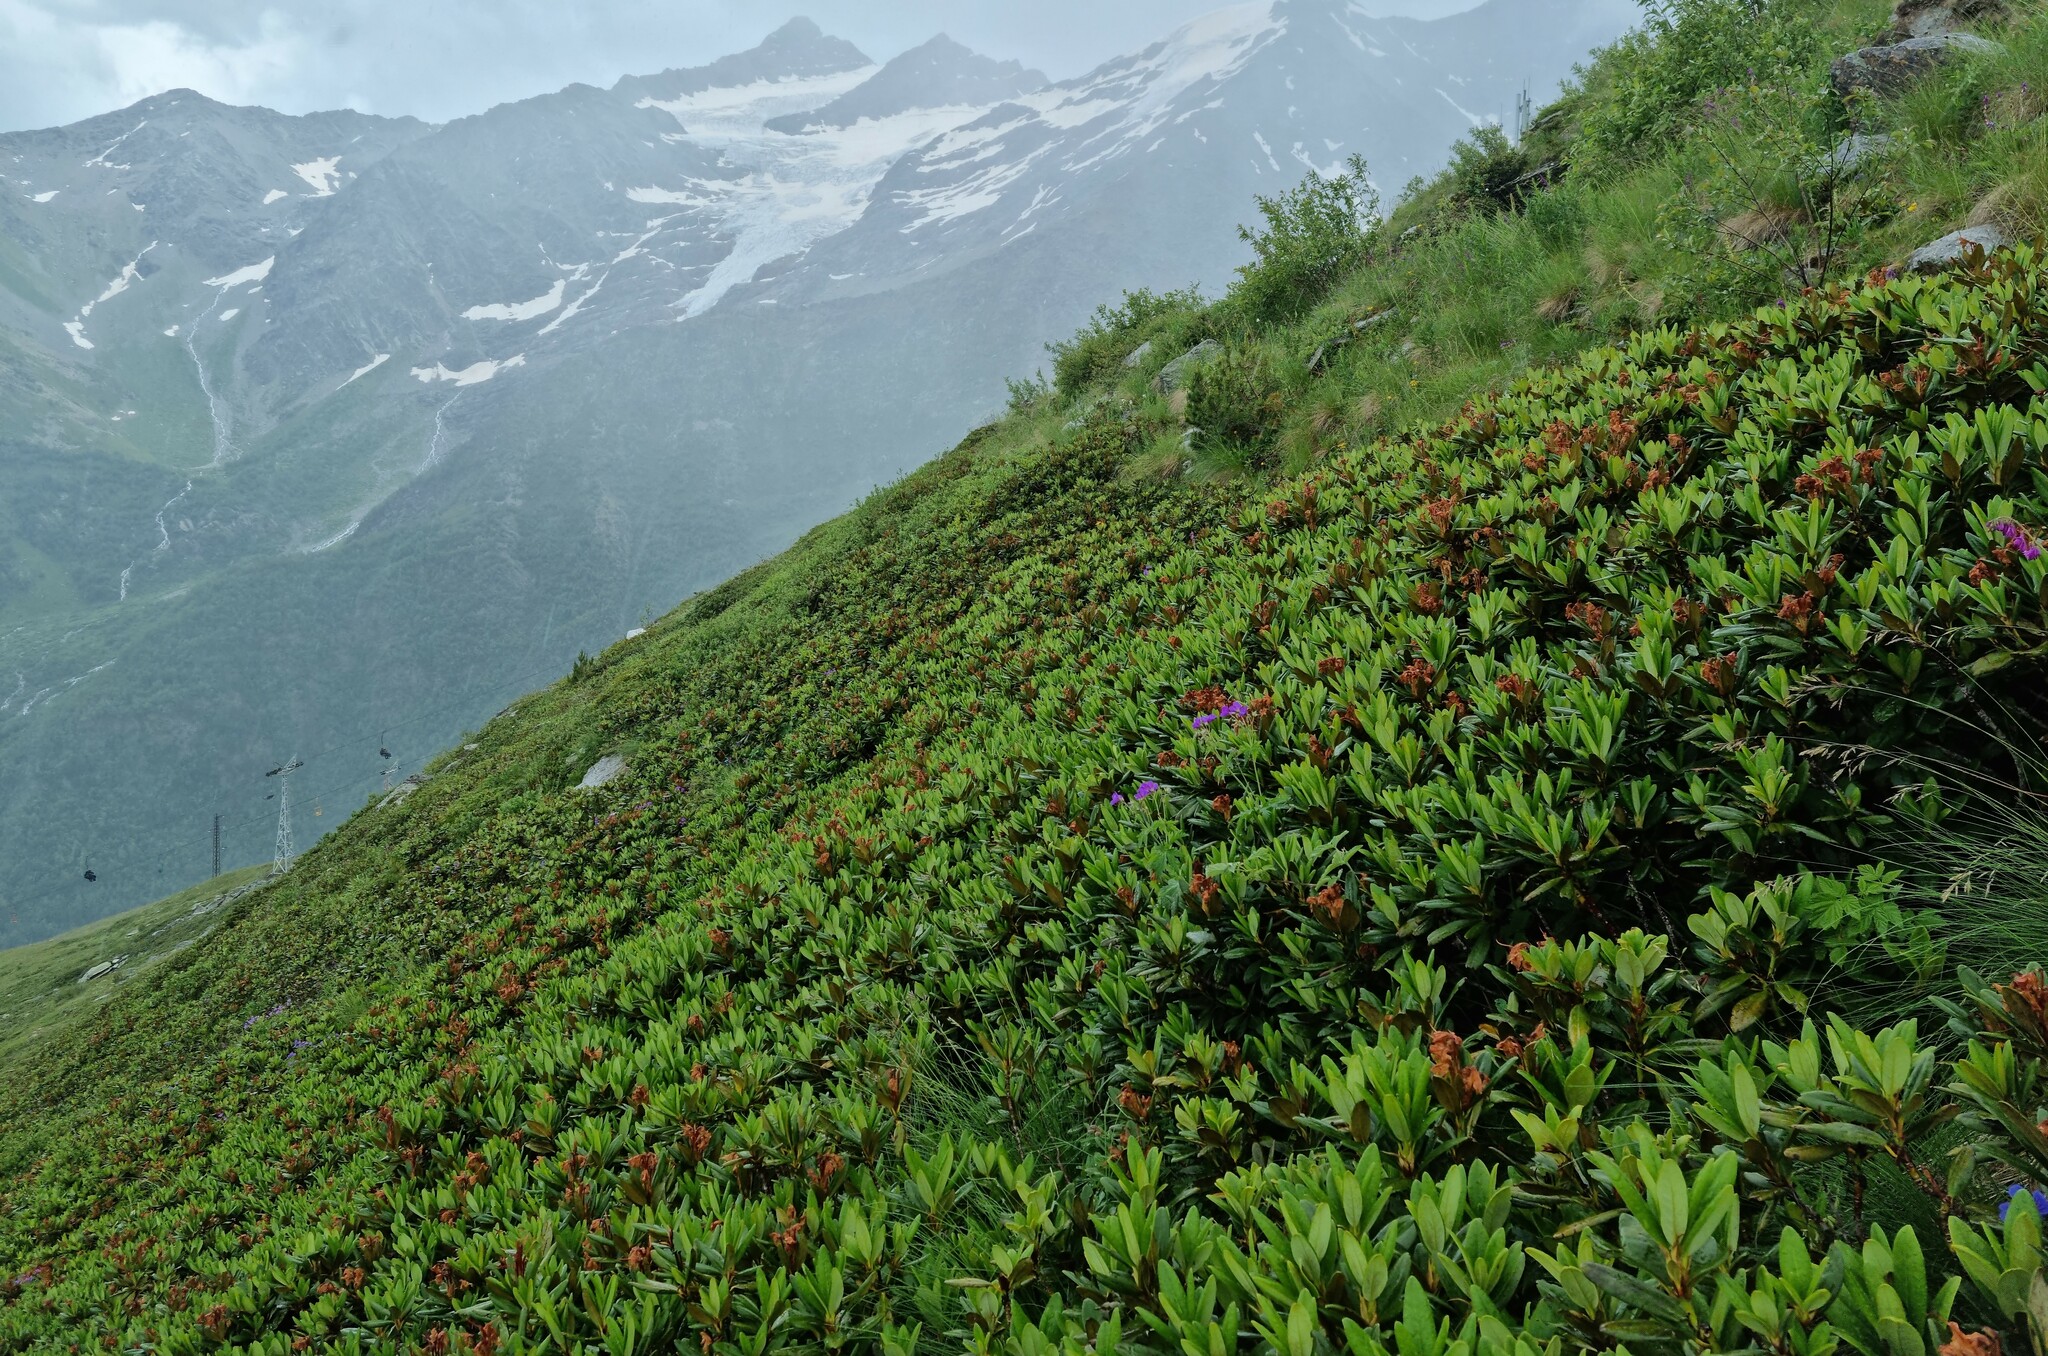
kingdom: Plantae
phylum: Tracheophyta
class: Magnoliopsida
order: Ericales
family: Ericaceae
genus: Rhododendron
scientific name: Rhododendron caucasicum
